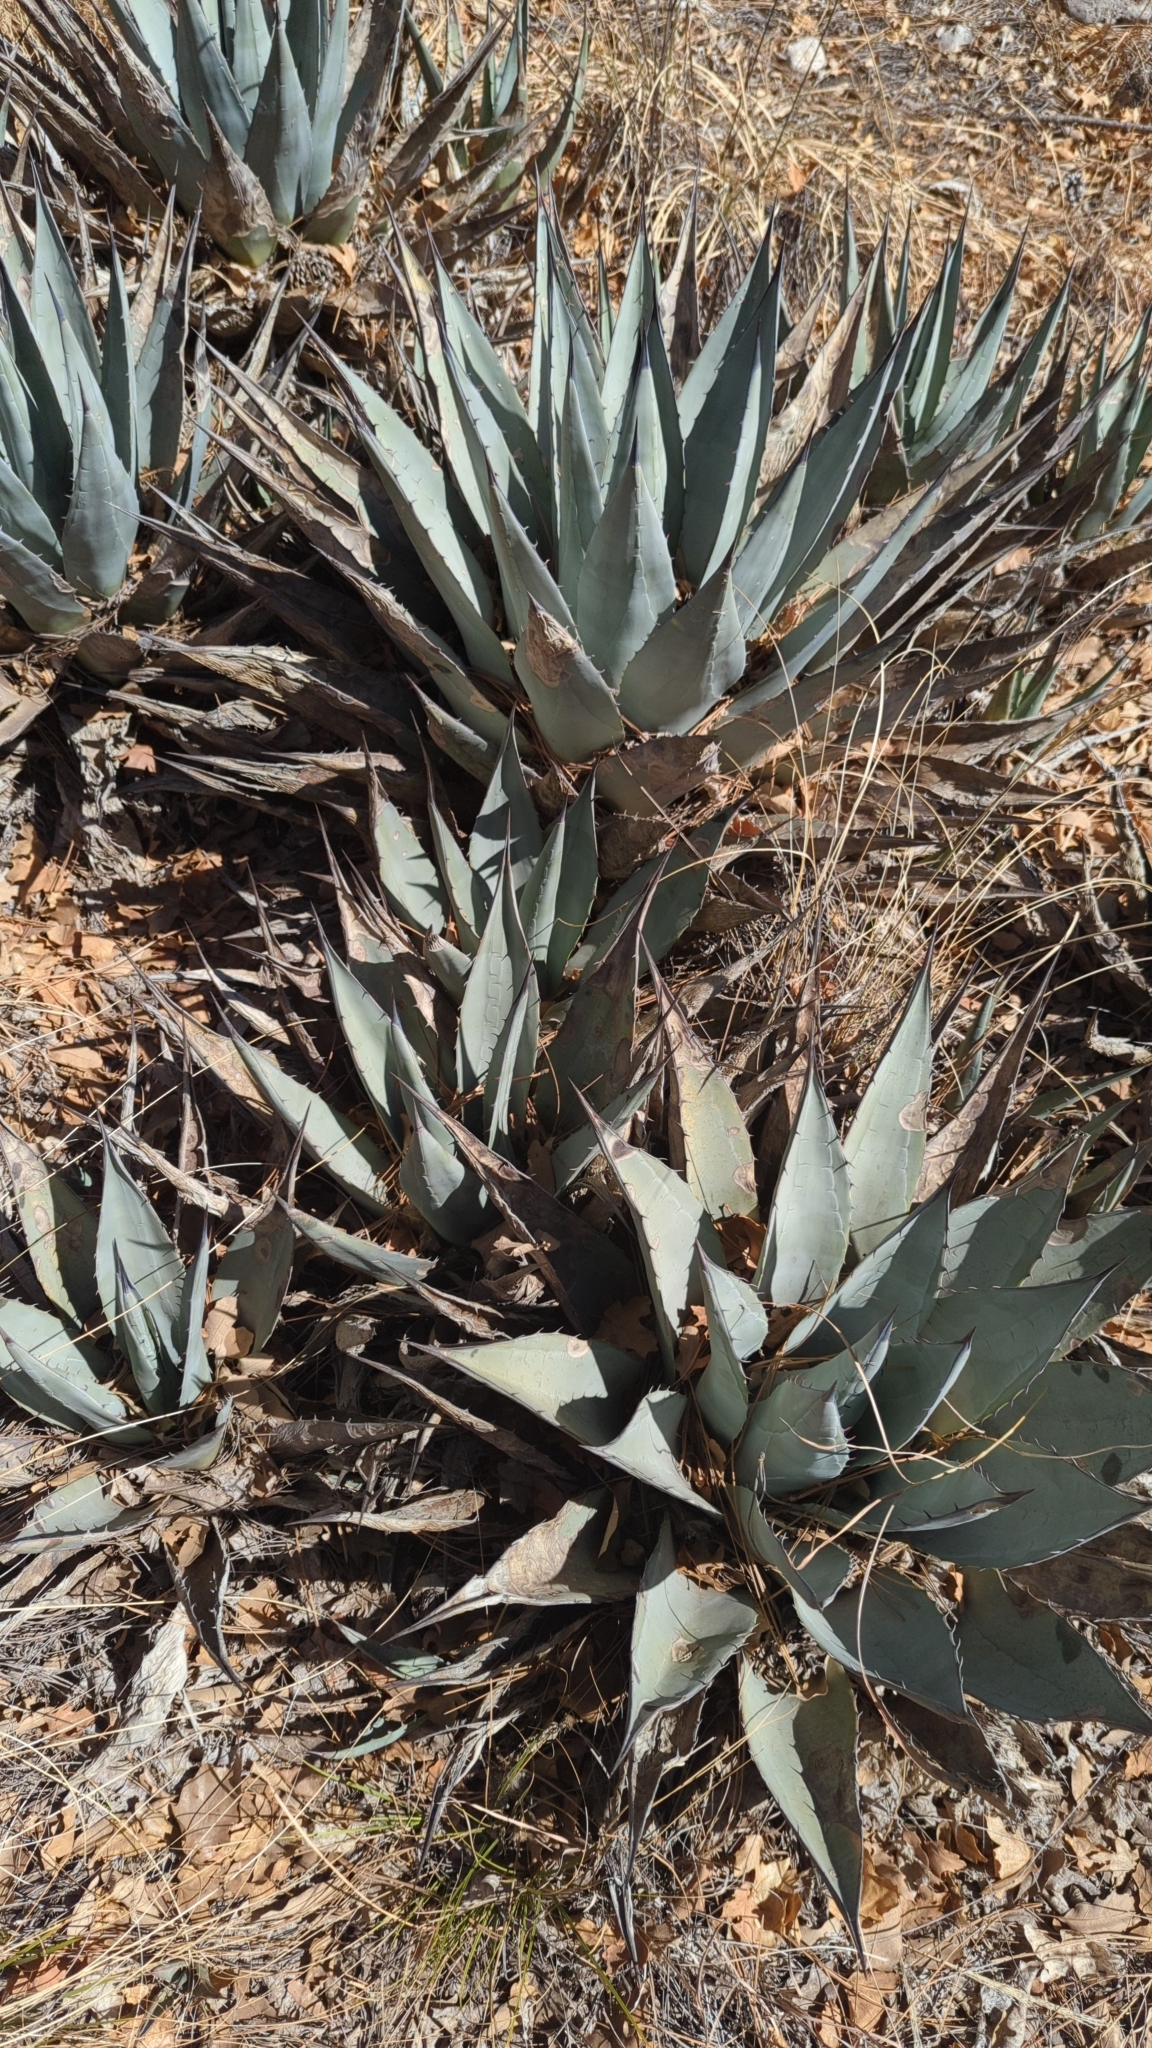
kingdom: Plantae
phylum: Tracheophyta
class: Liliopsida
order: Asparagales
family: Asparagaceae
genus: Agave
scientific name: Agave parryi
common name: Parry's agave
